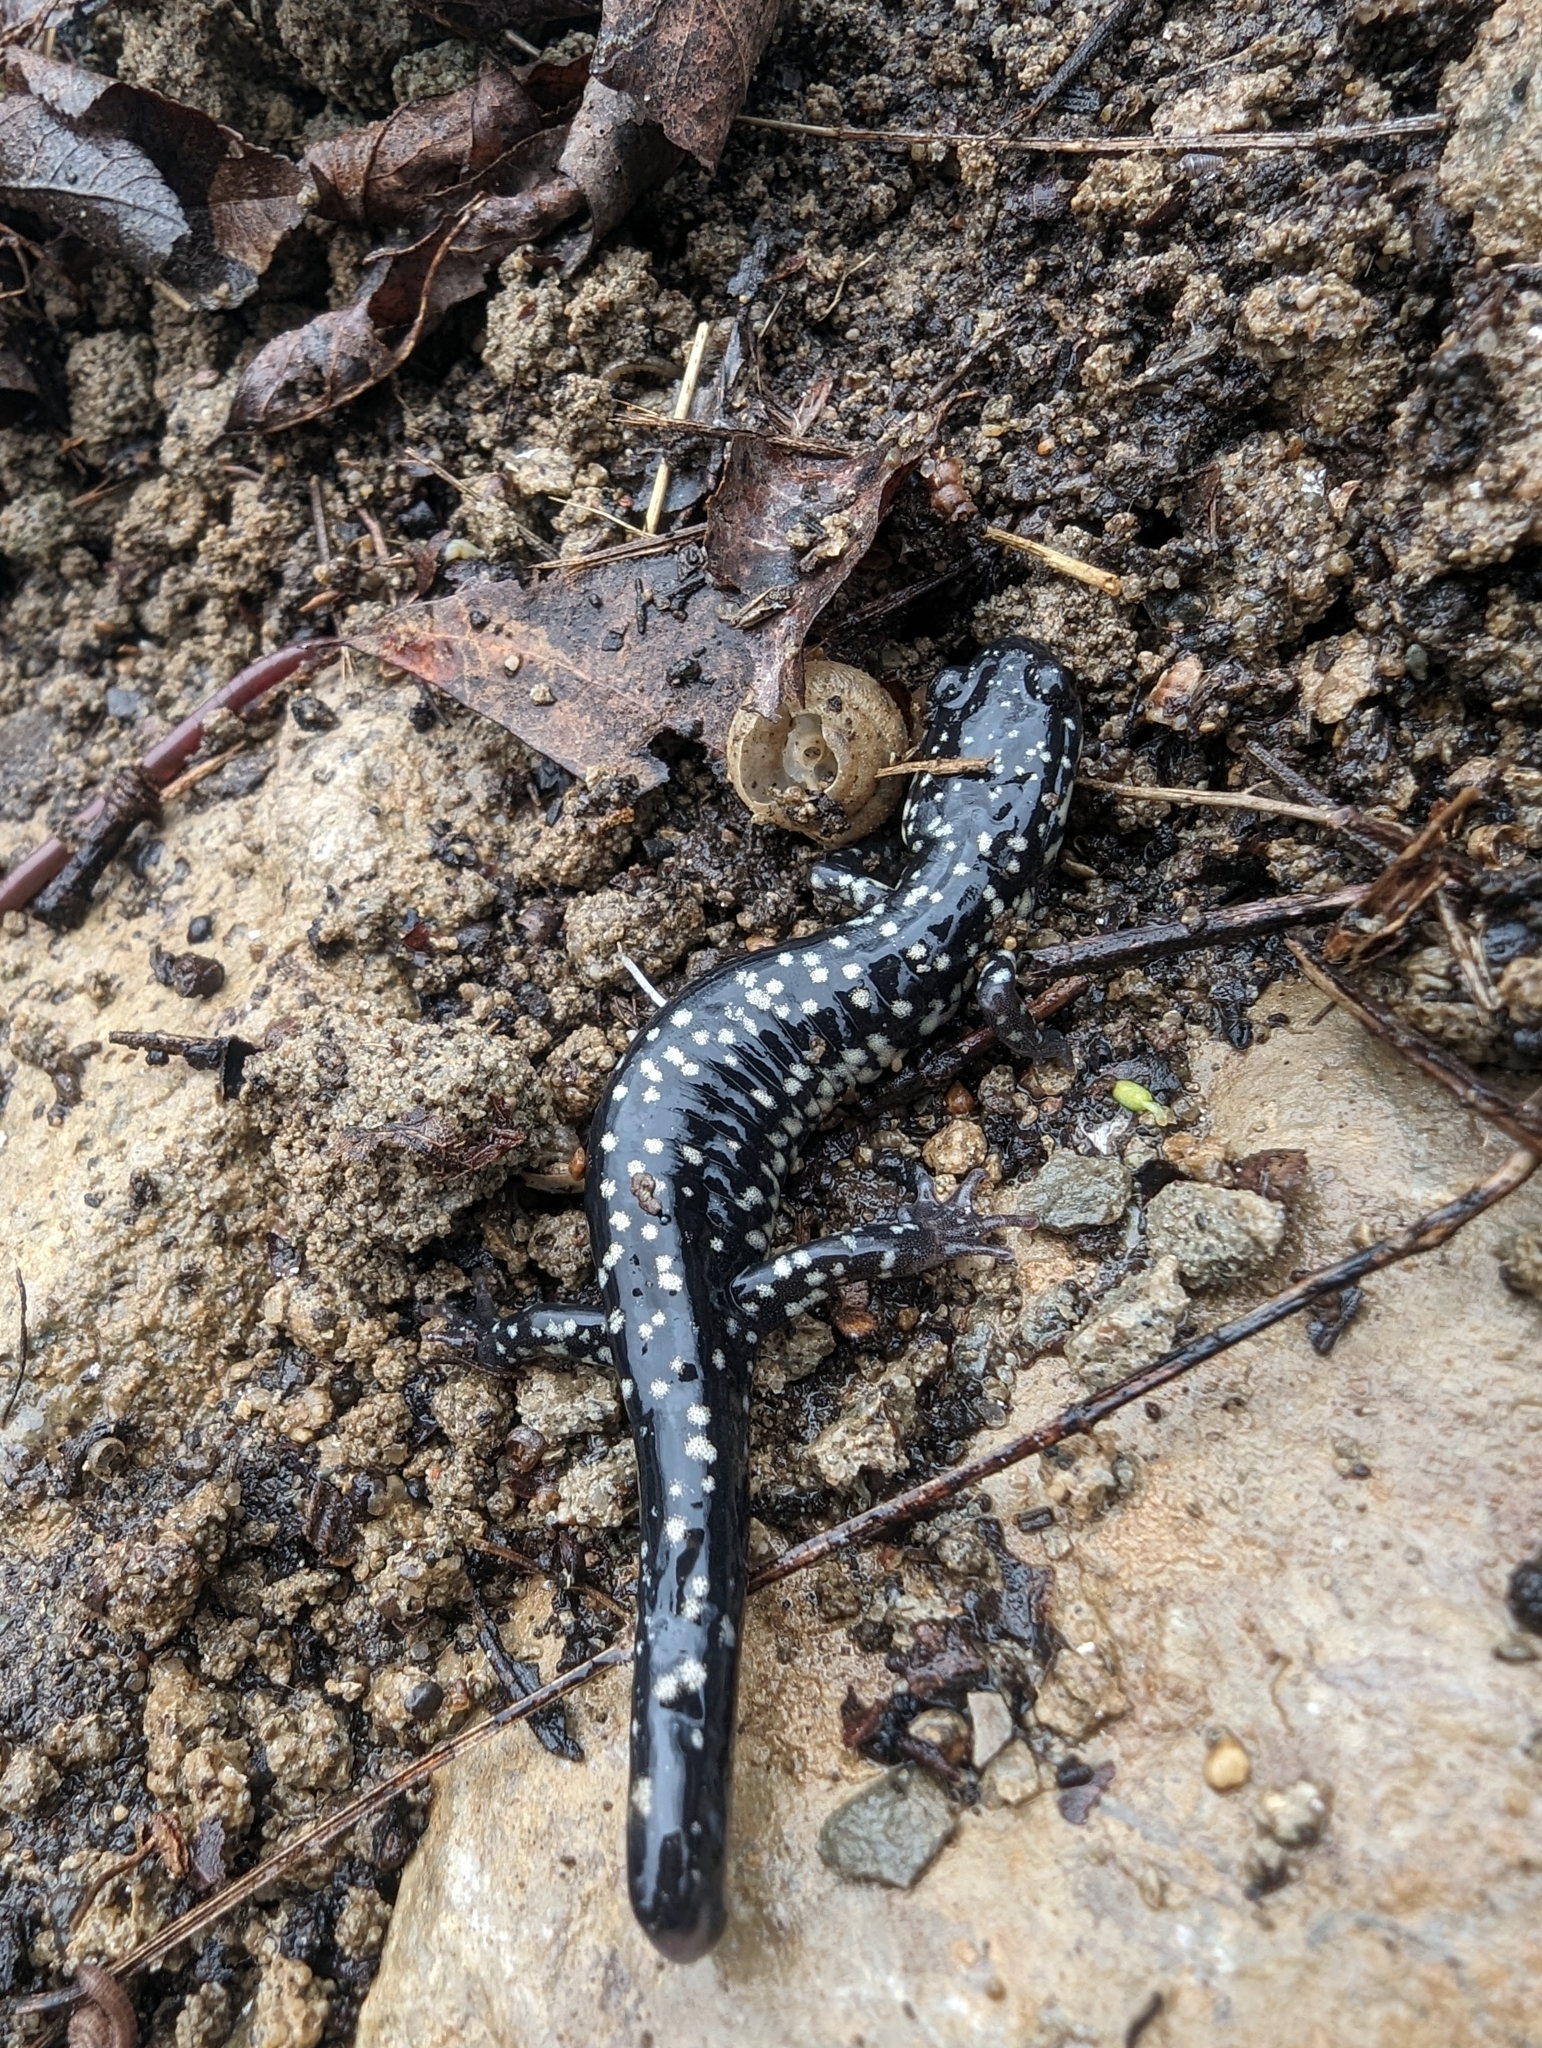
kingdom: Animalia
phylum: Chordata
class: Amphibia
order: Caudata
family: Plethodontidae
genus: Plethodon
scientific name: Plethodon glutinosus
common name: Northern slimy salamander
